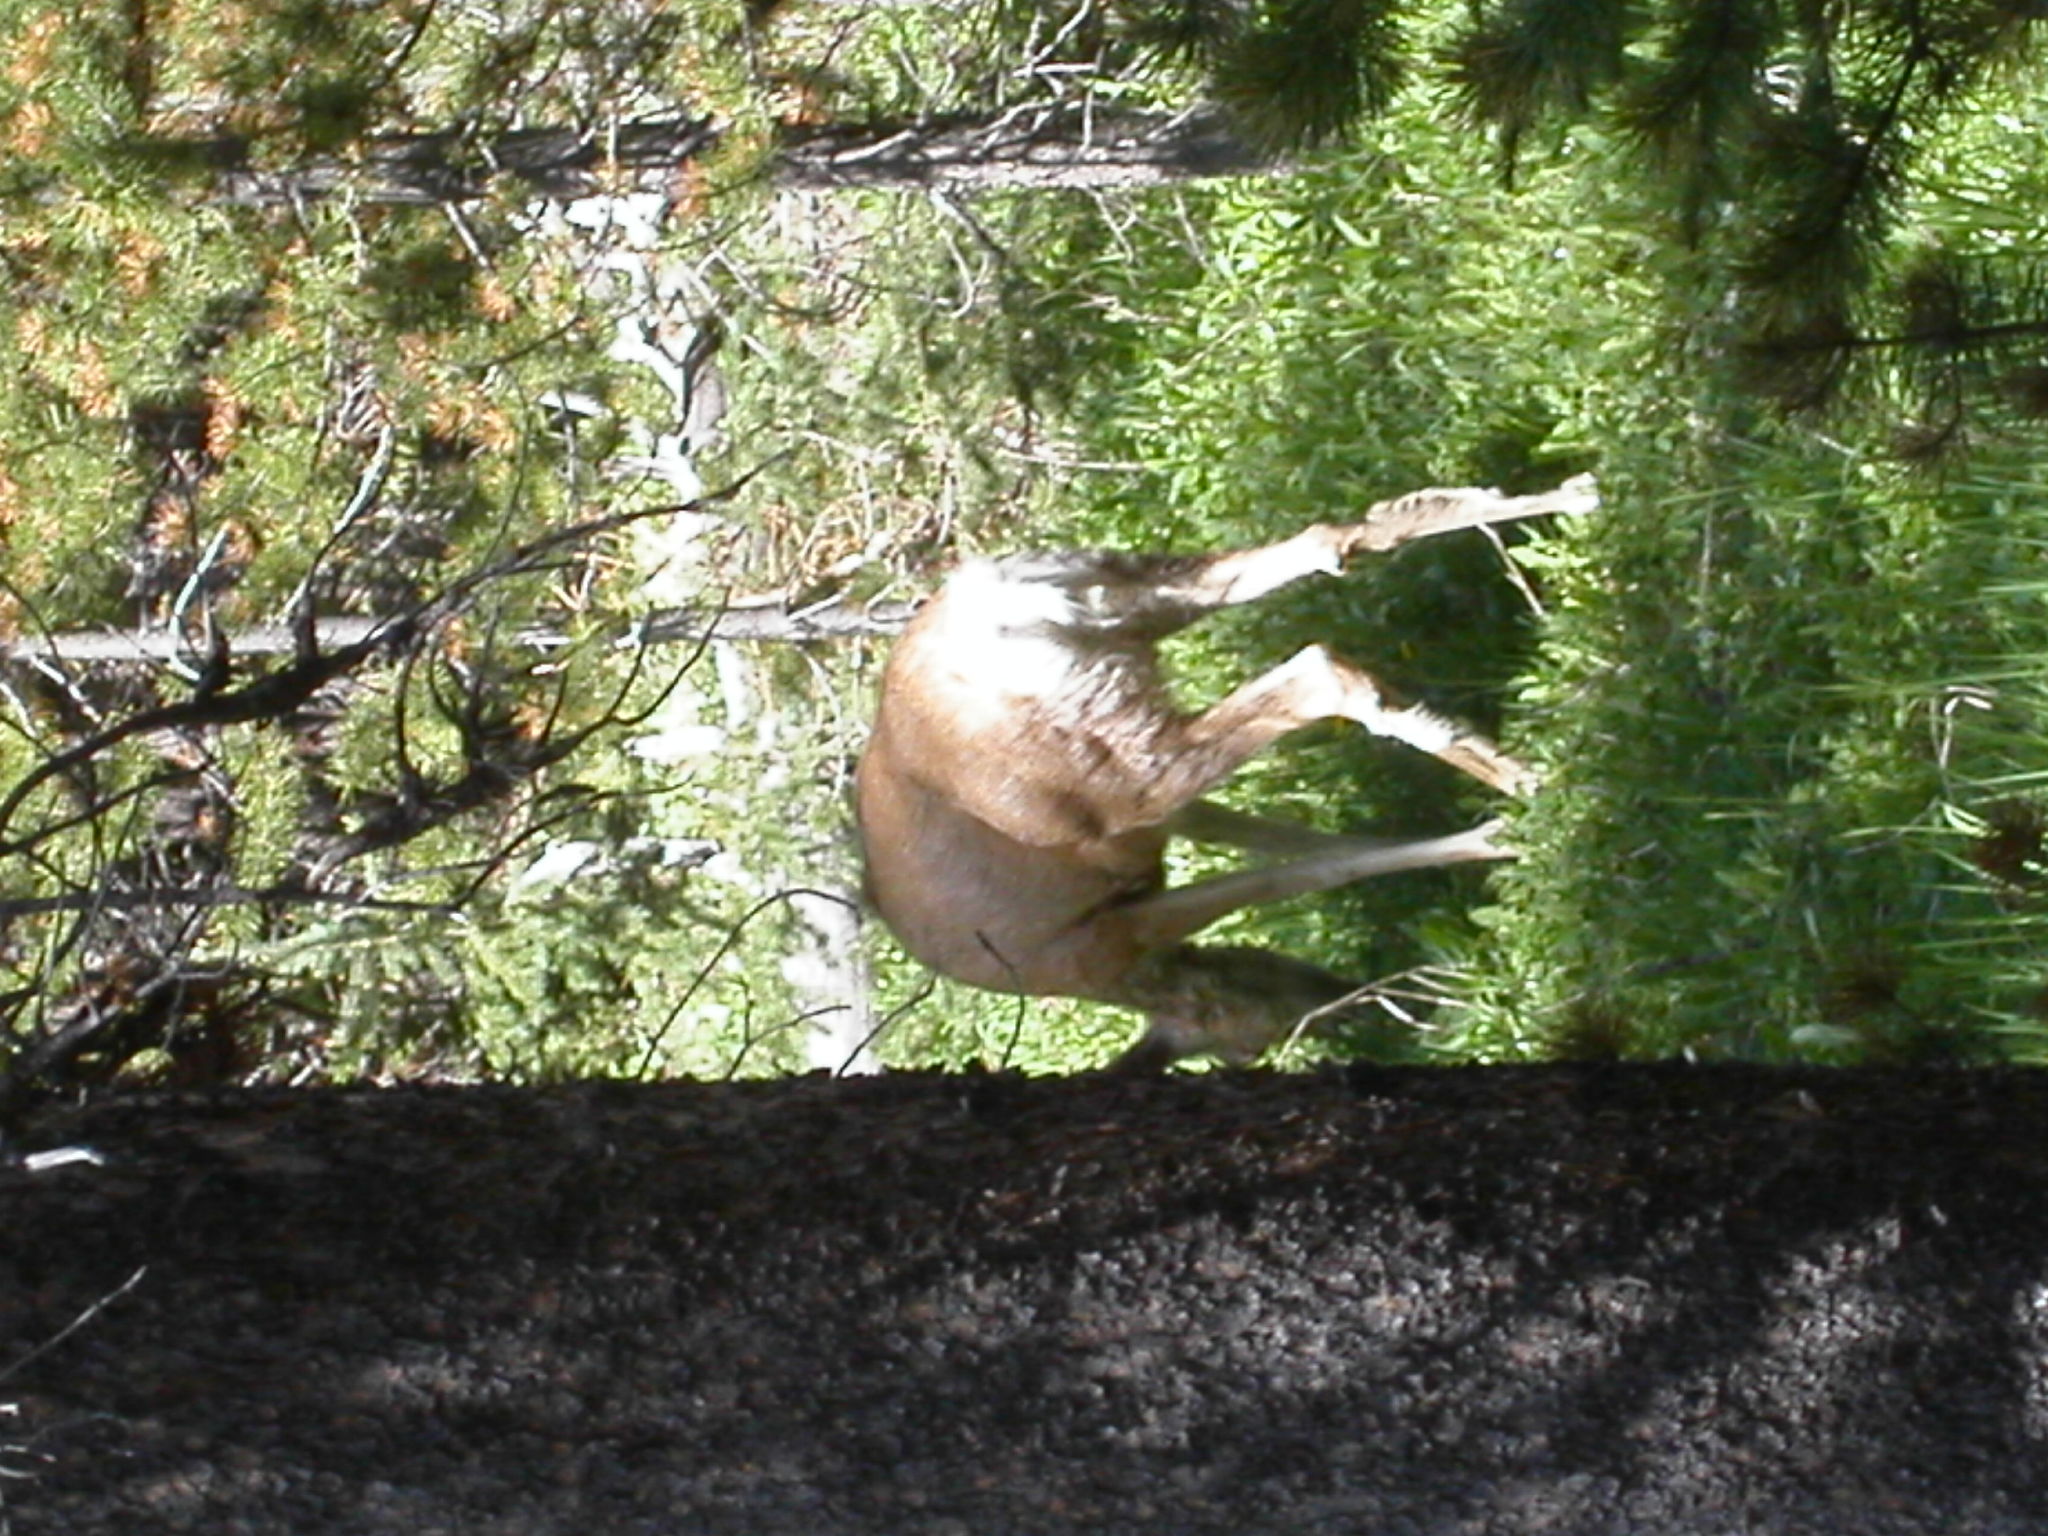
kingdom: Animalia
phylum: Chordata
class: Mammalia
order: Artiodactyla
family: Cervidae
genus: Odocoileus
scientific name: Odocoileus hemionus
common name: Mule deer
